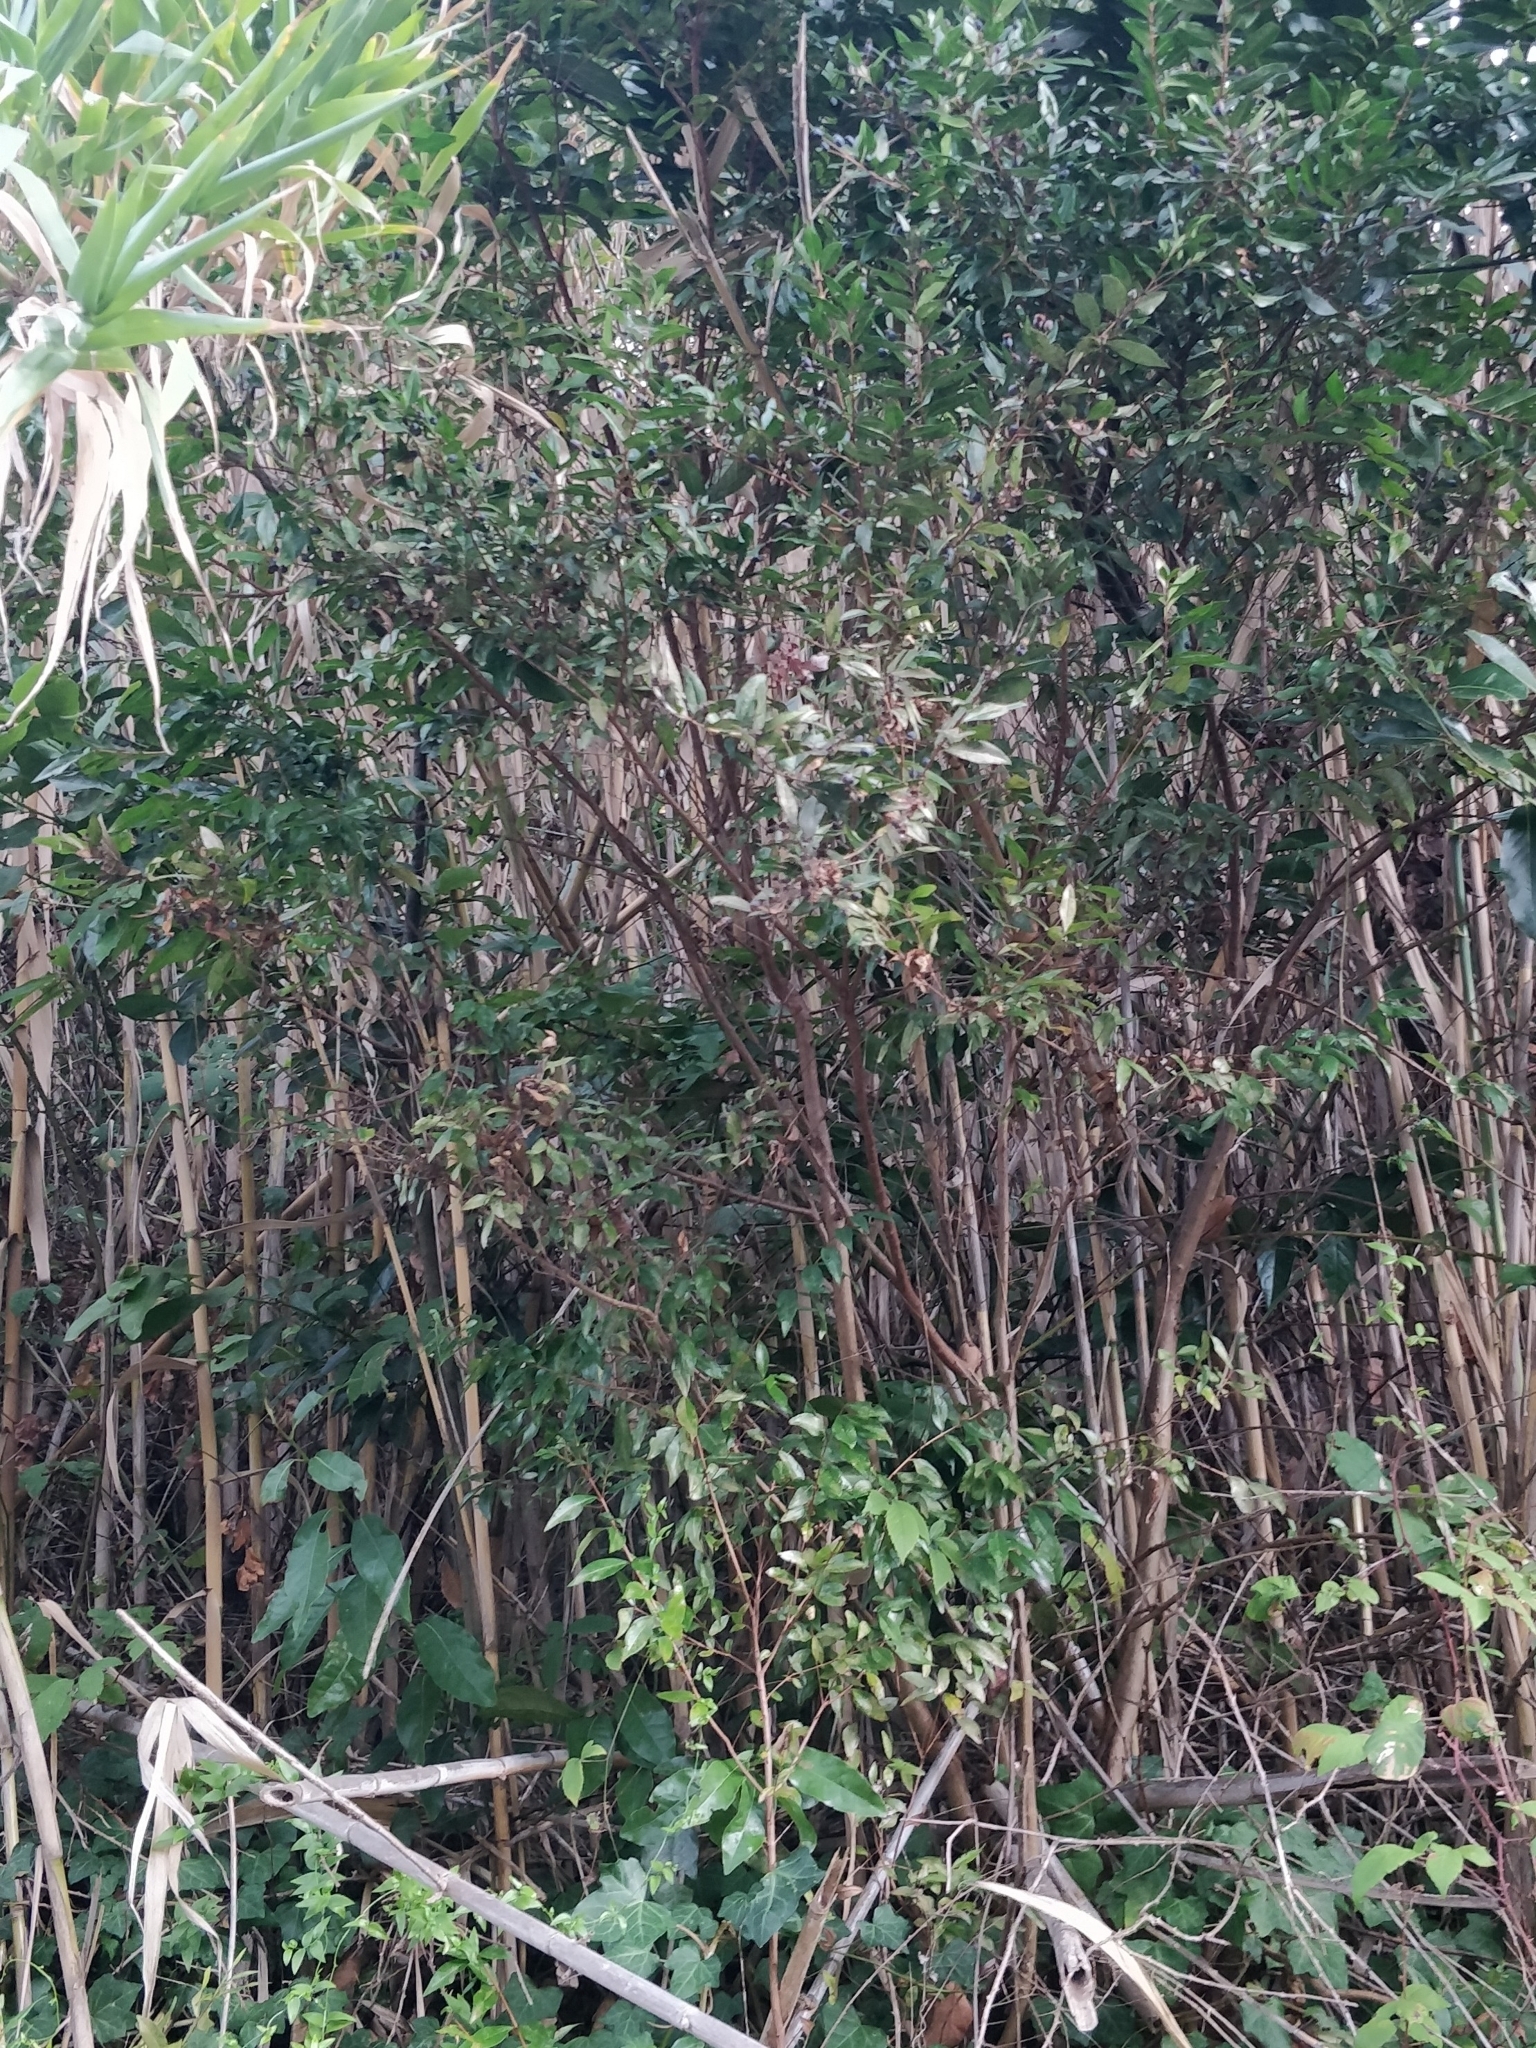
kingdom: Plantae
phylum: Tracheophyta
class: Magnoliopsida
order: Myrtales
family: Myrtaceae
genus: Myrtus
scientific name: Myrtus communis
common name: Myrtle
